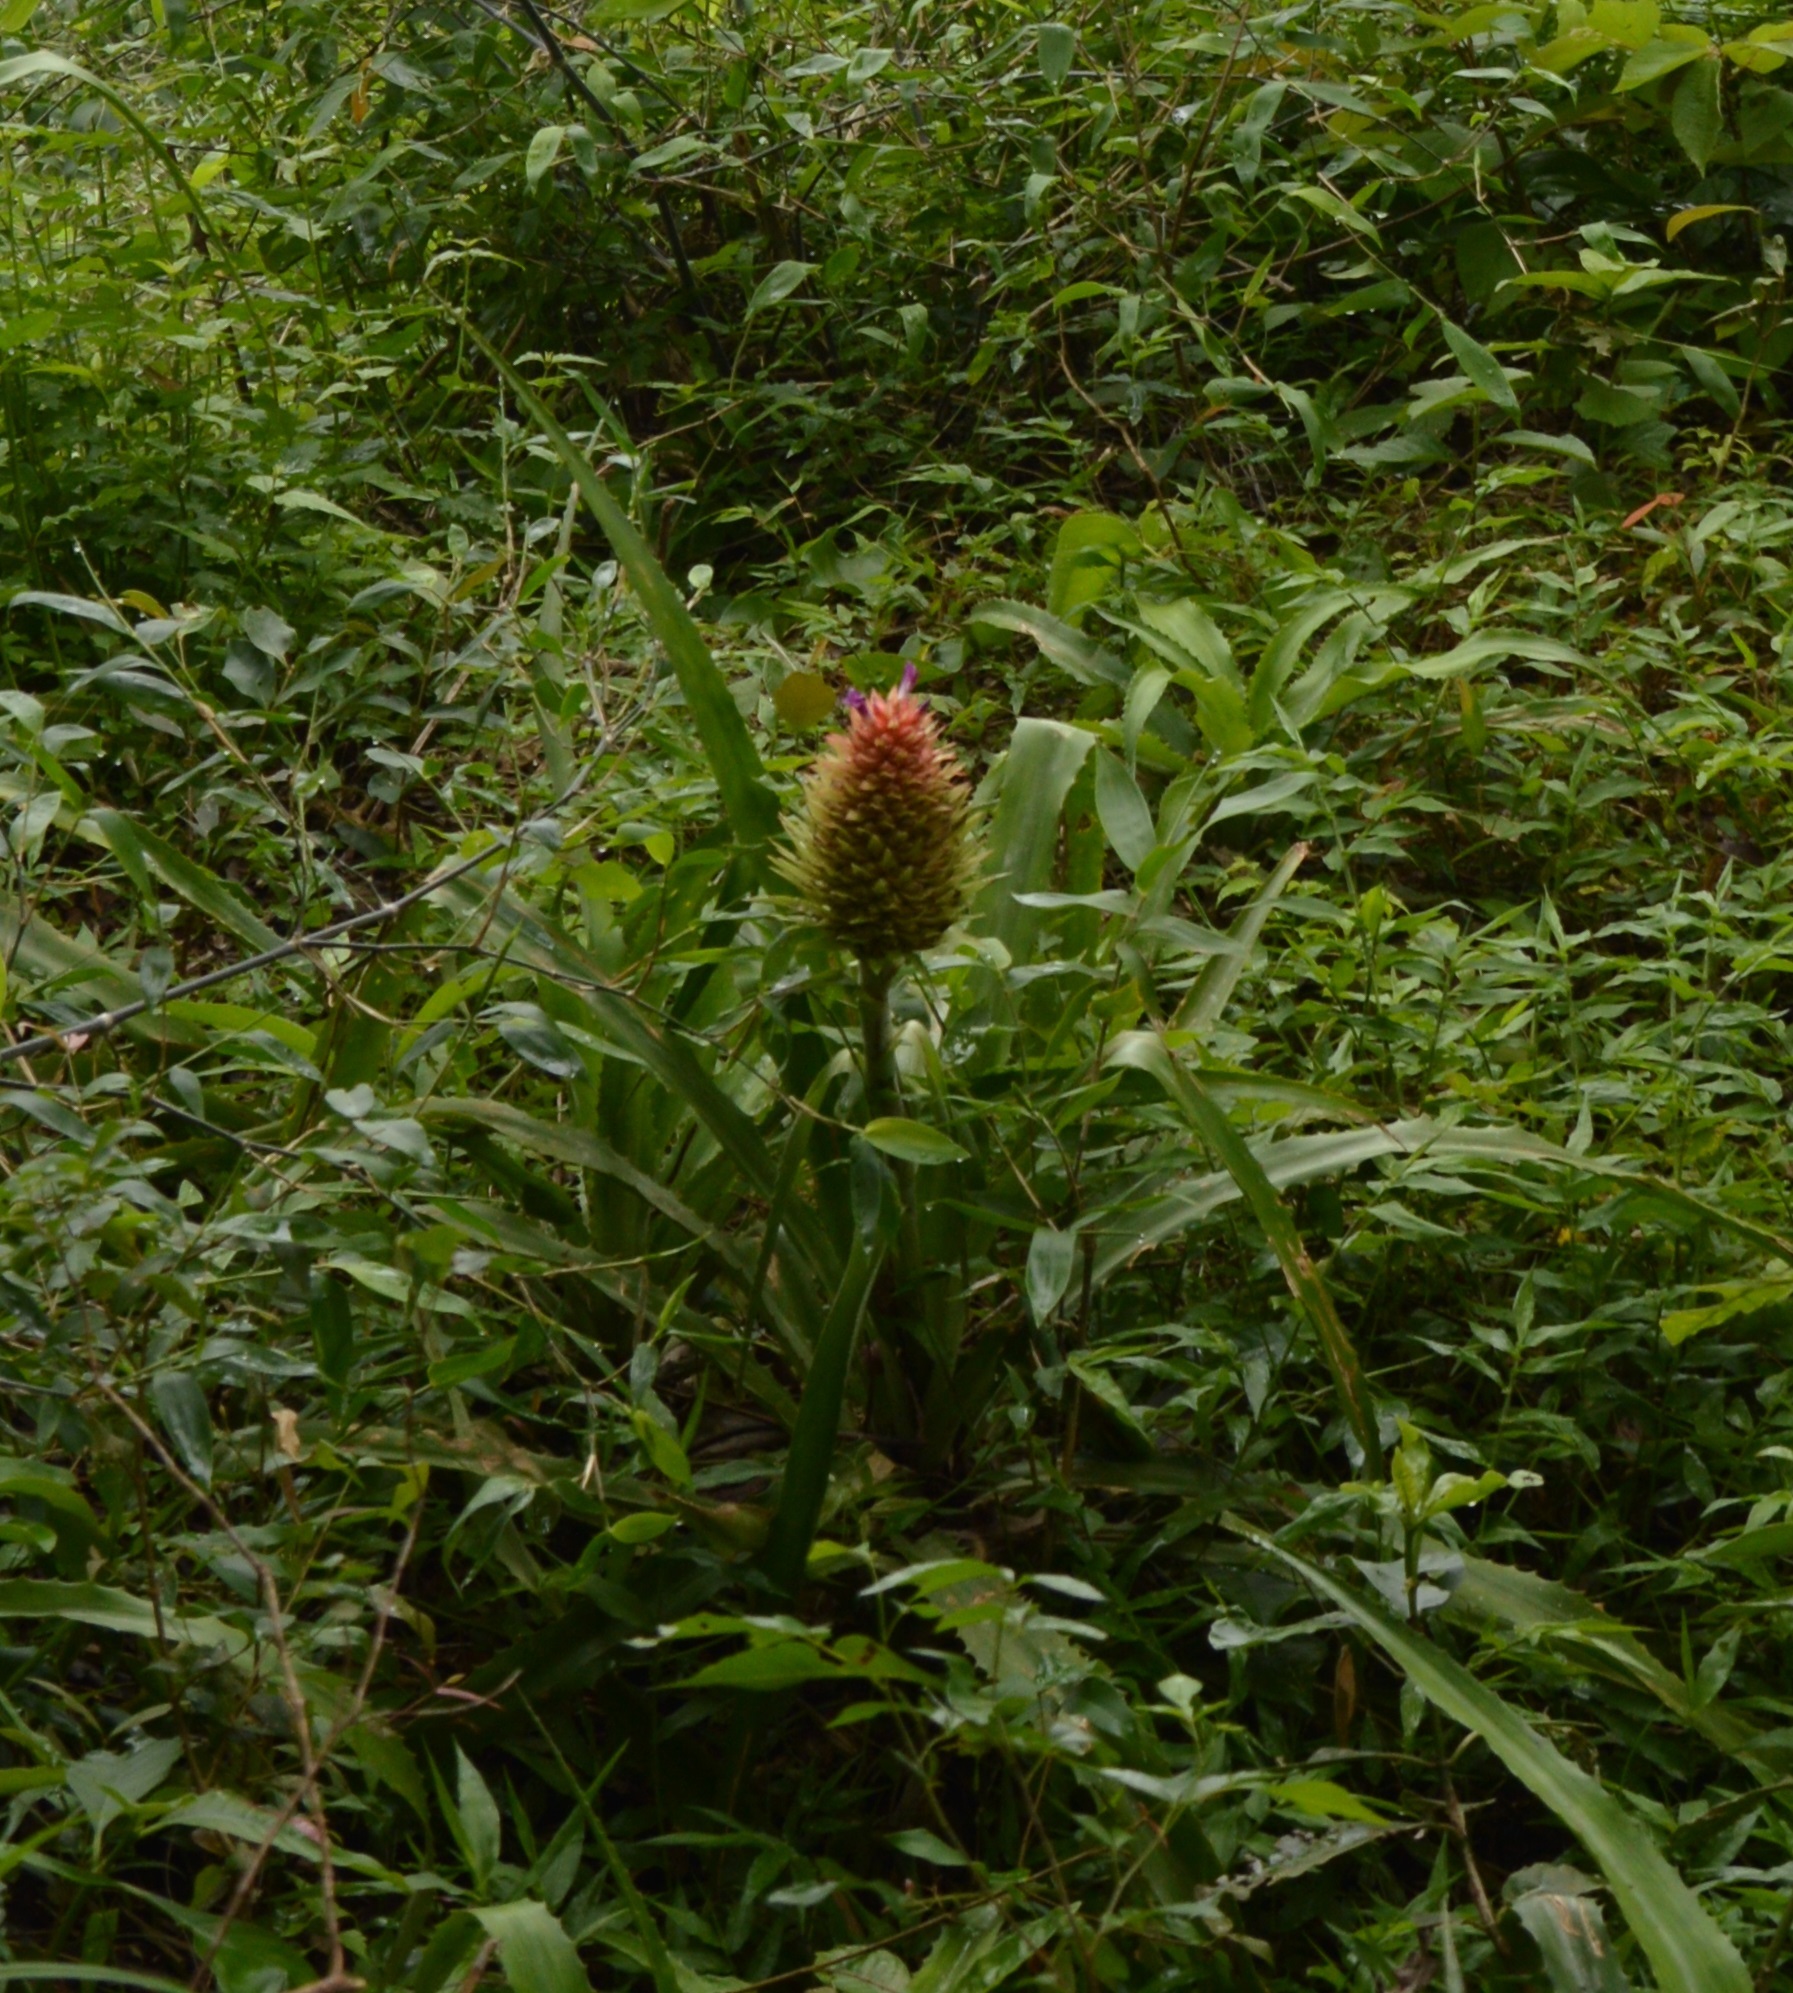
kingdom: Plantae
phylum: Tracheophyta
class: Liliopsida
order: Poales
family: Bromeliaceae
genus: Ananas
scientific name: Ananas macrodontes
